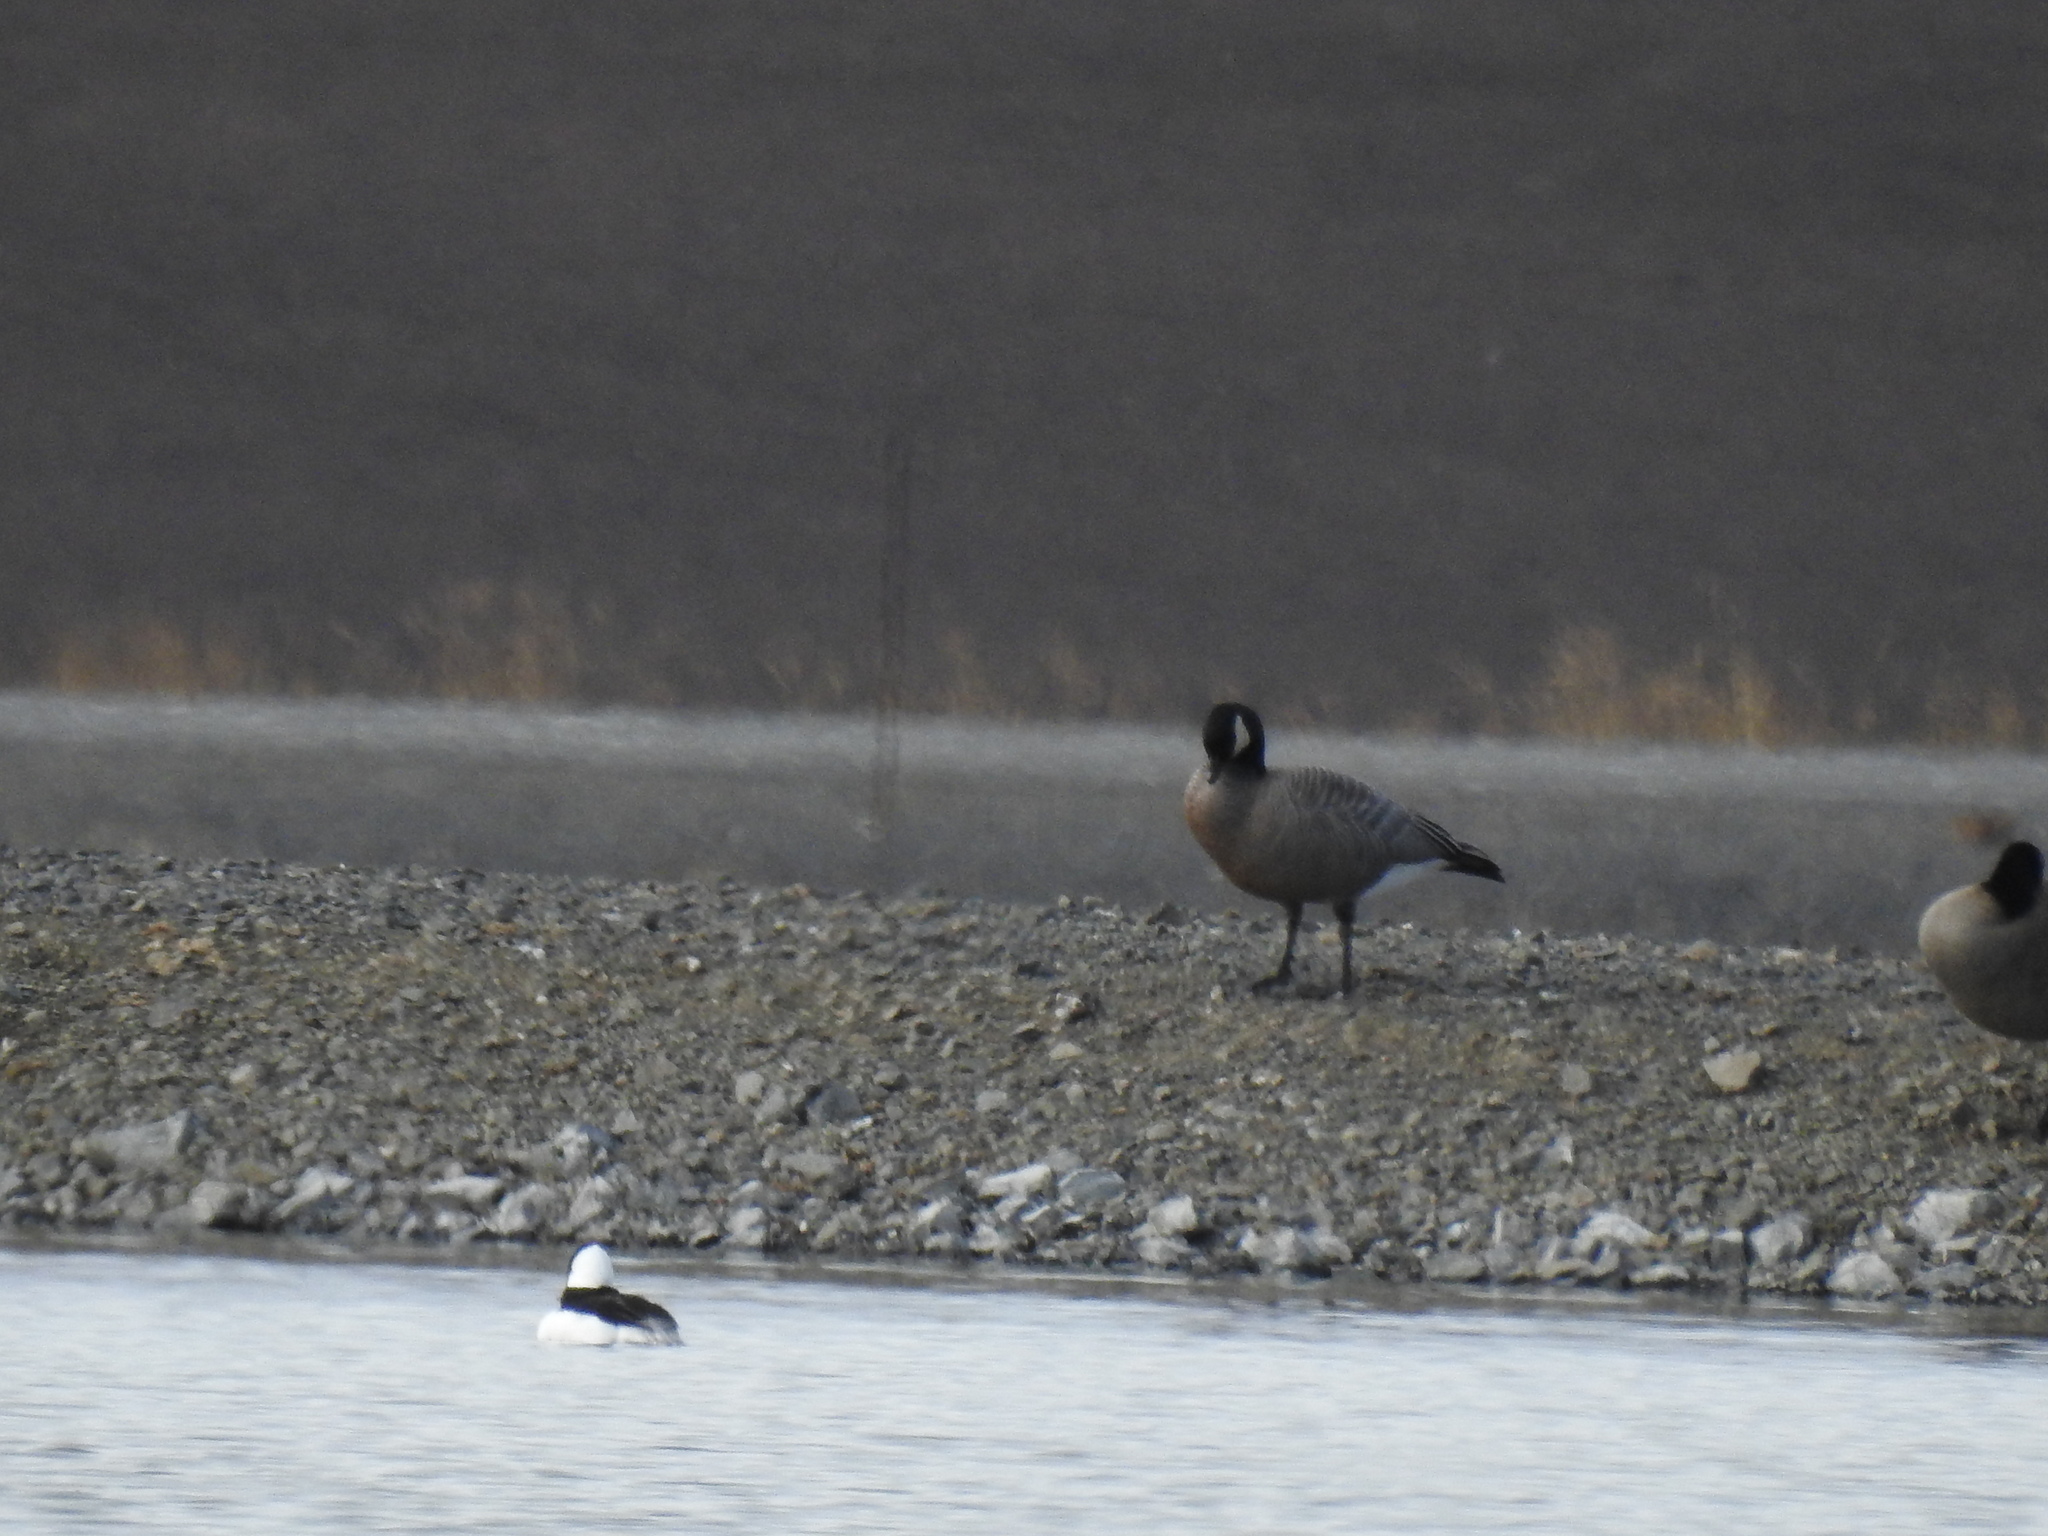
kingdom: Animalia
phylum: Chordata
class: Aves
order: Anseriformes
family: Anatidae
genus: Bucephala
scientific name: Bucephala albeola
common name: Bufflehead
